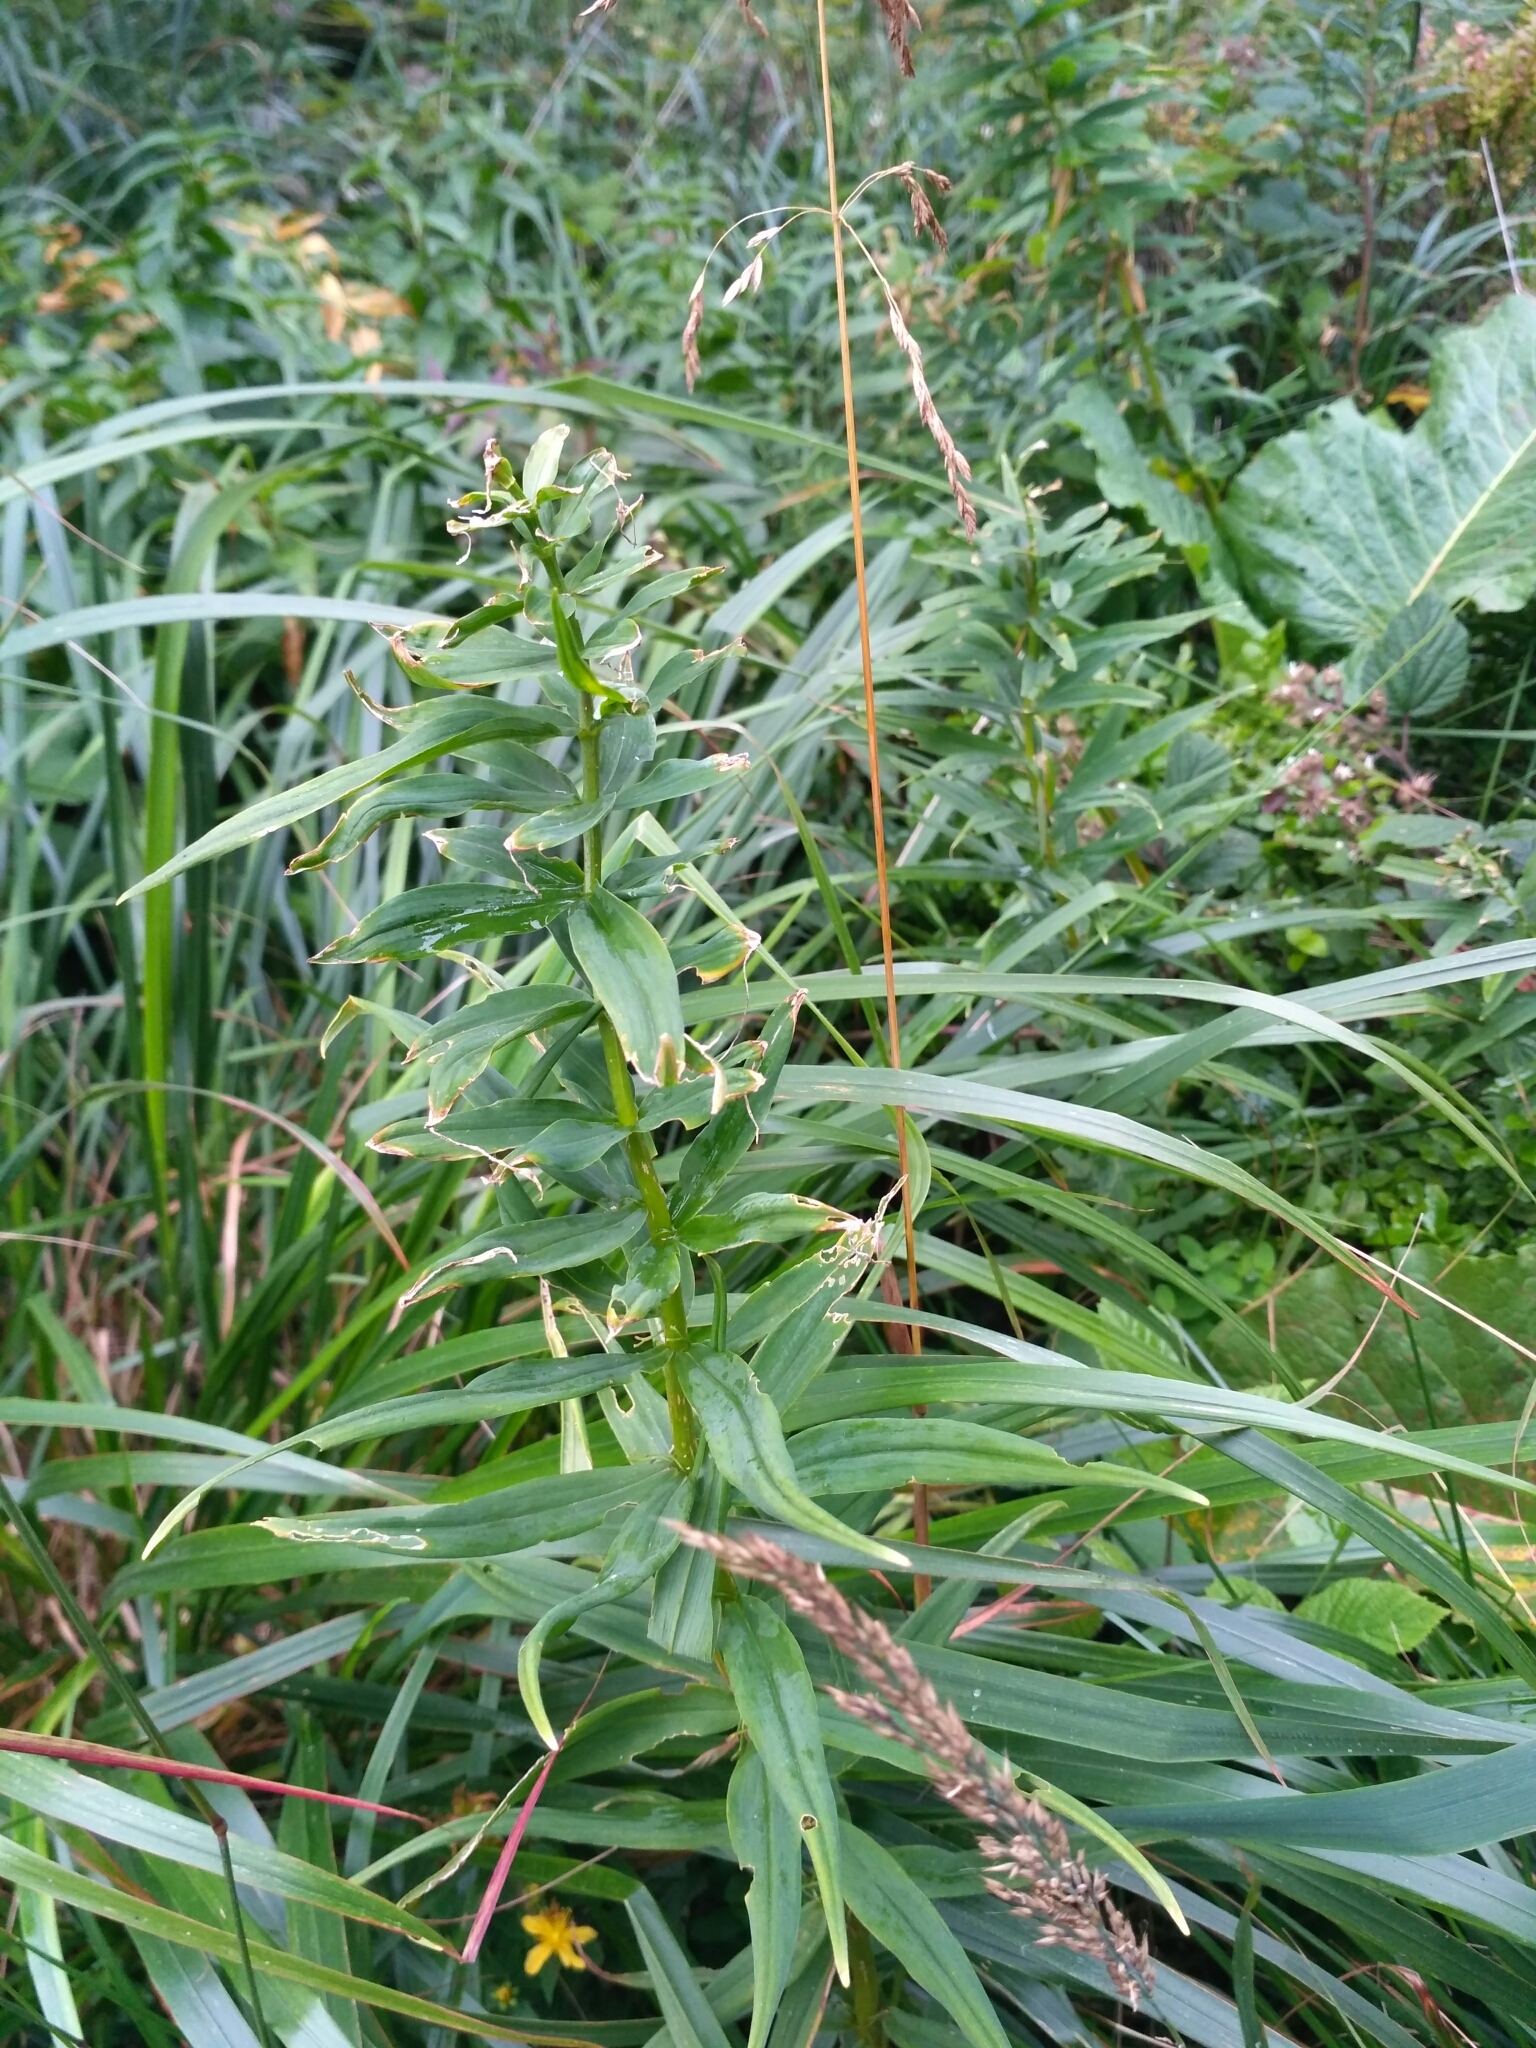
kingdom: Plantae
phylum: Tracheophyta
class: Liliopsida
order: Liliales
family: Liliaceae
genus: Lilium
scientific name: Lilium martagon
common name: Martagon lily
